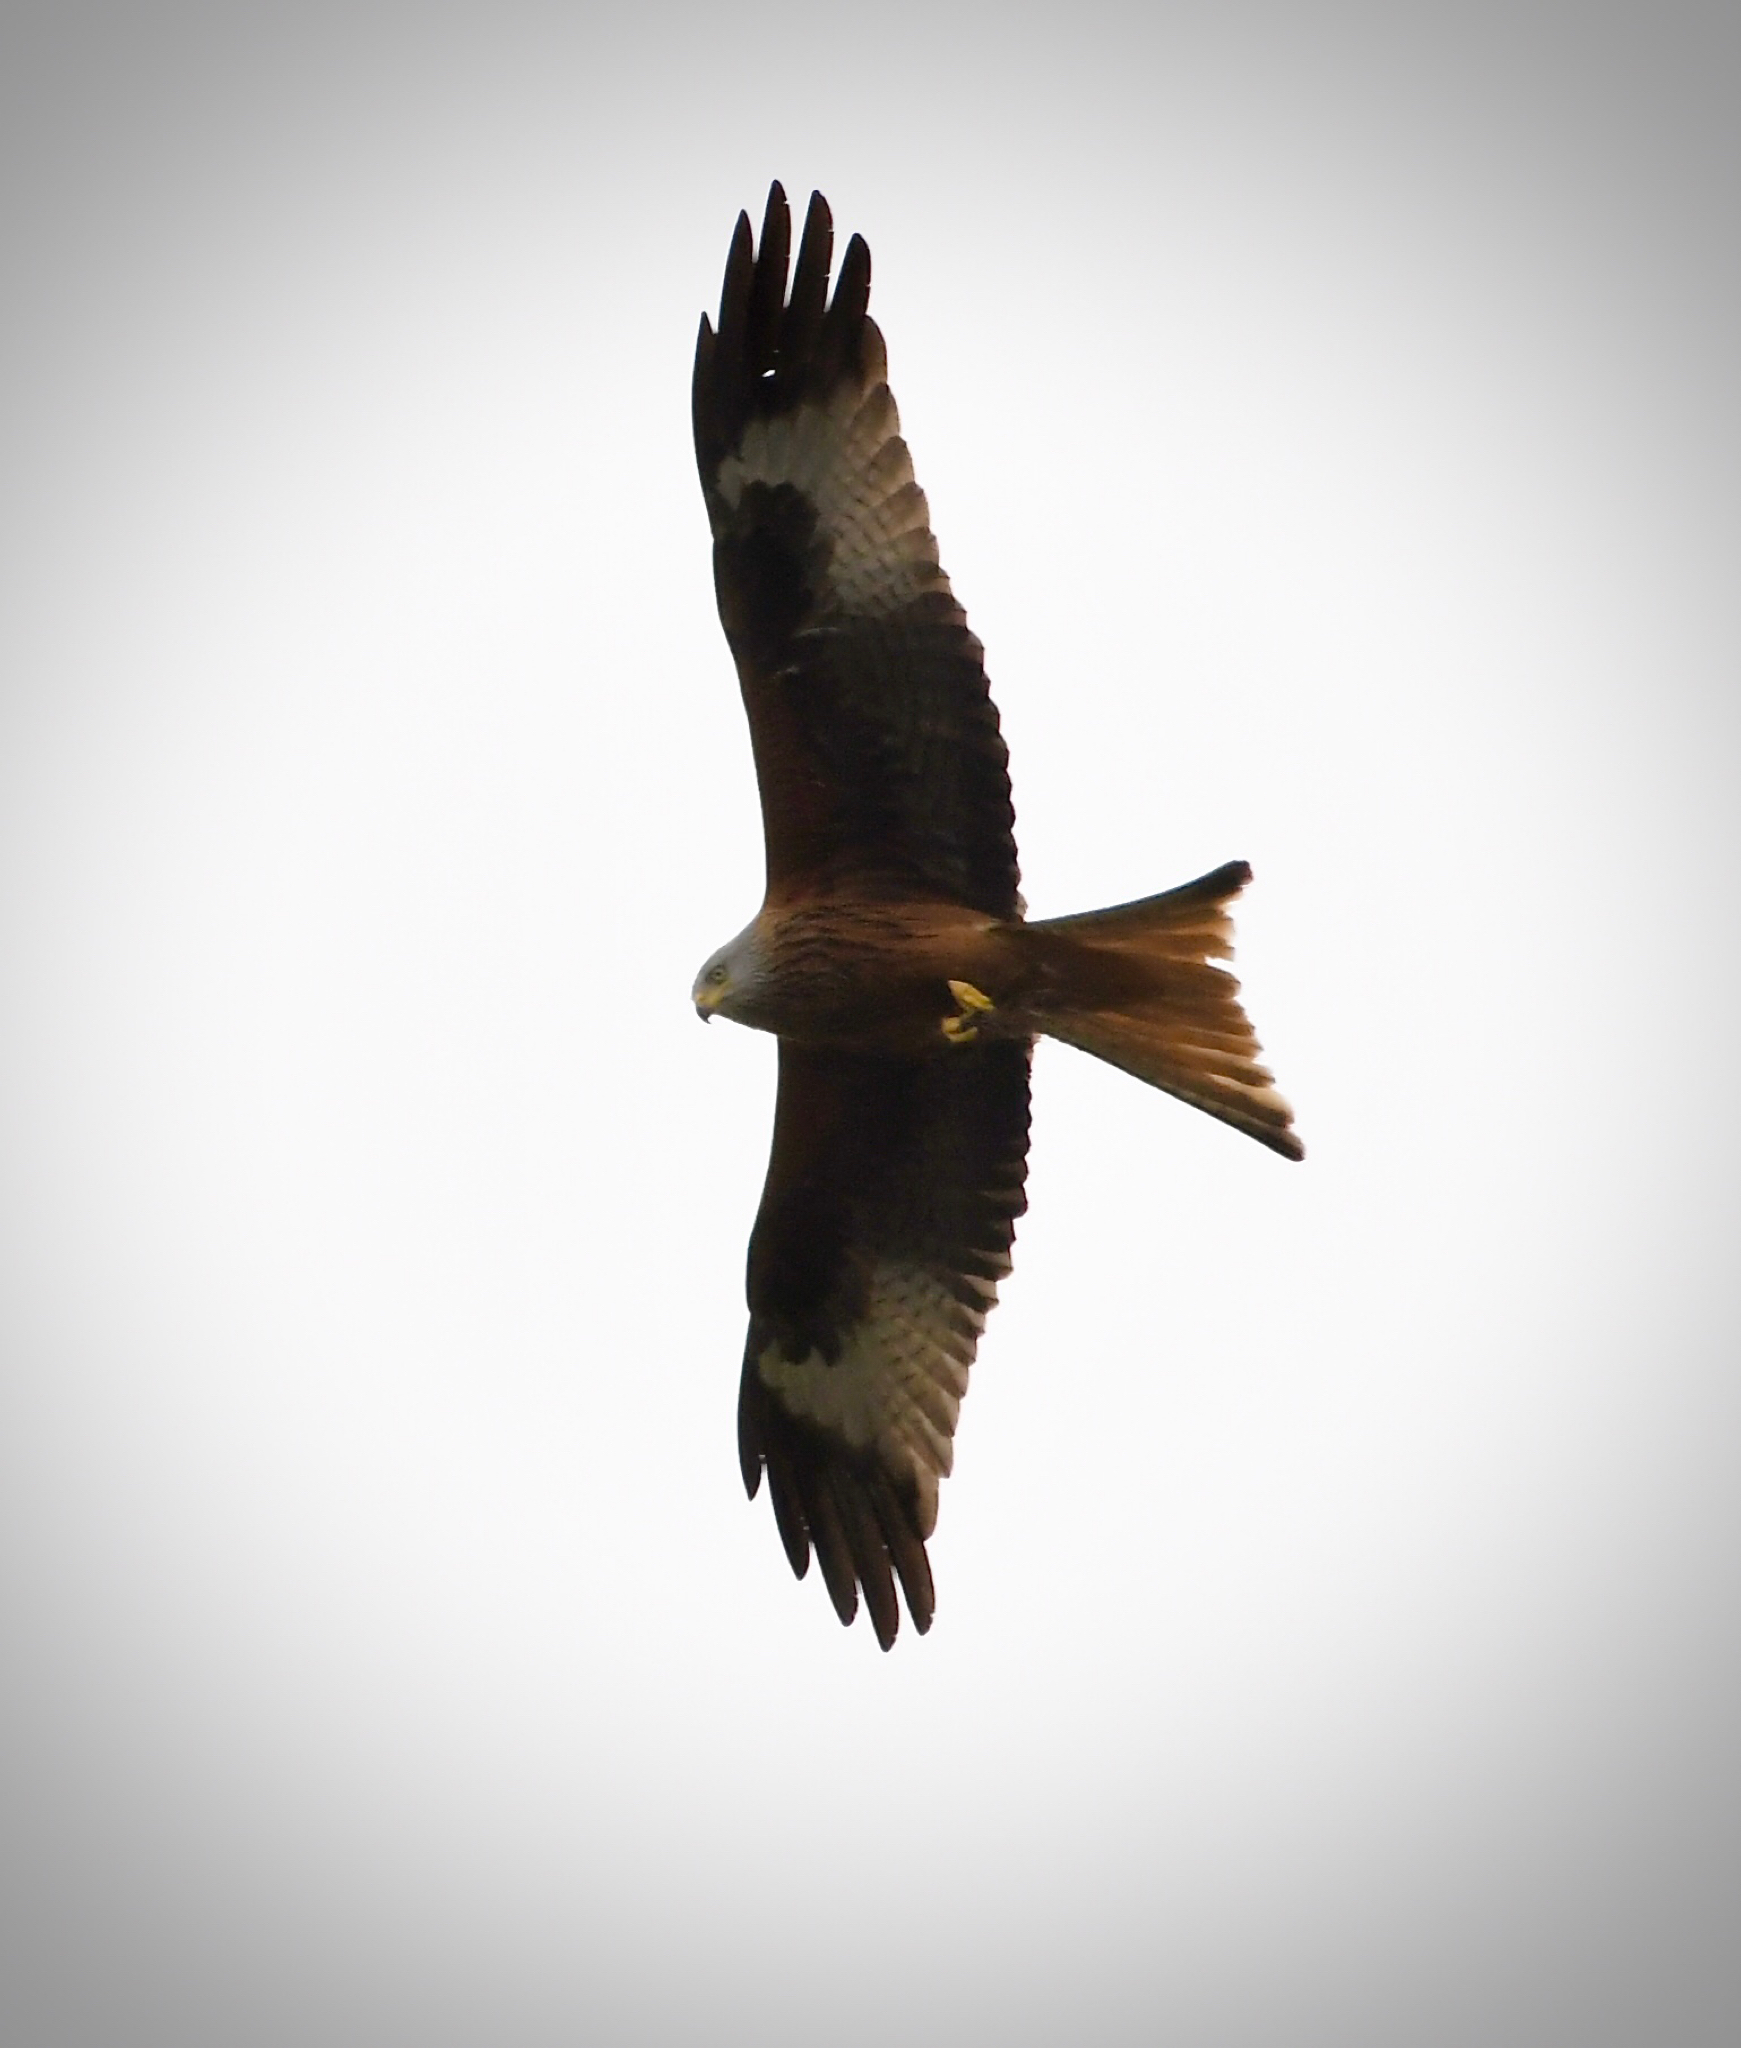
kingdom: Animalia
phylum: Chordata
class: Aves
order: Accipitriformes
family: Accipitridae
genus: Milvus
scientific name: Milvus milvus
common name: Red kite
